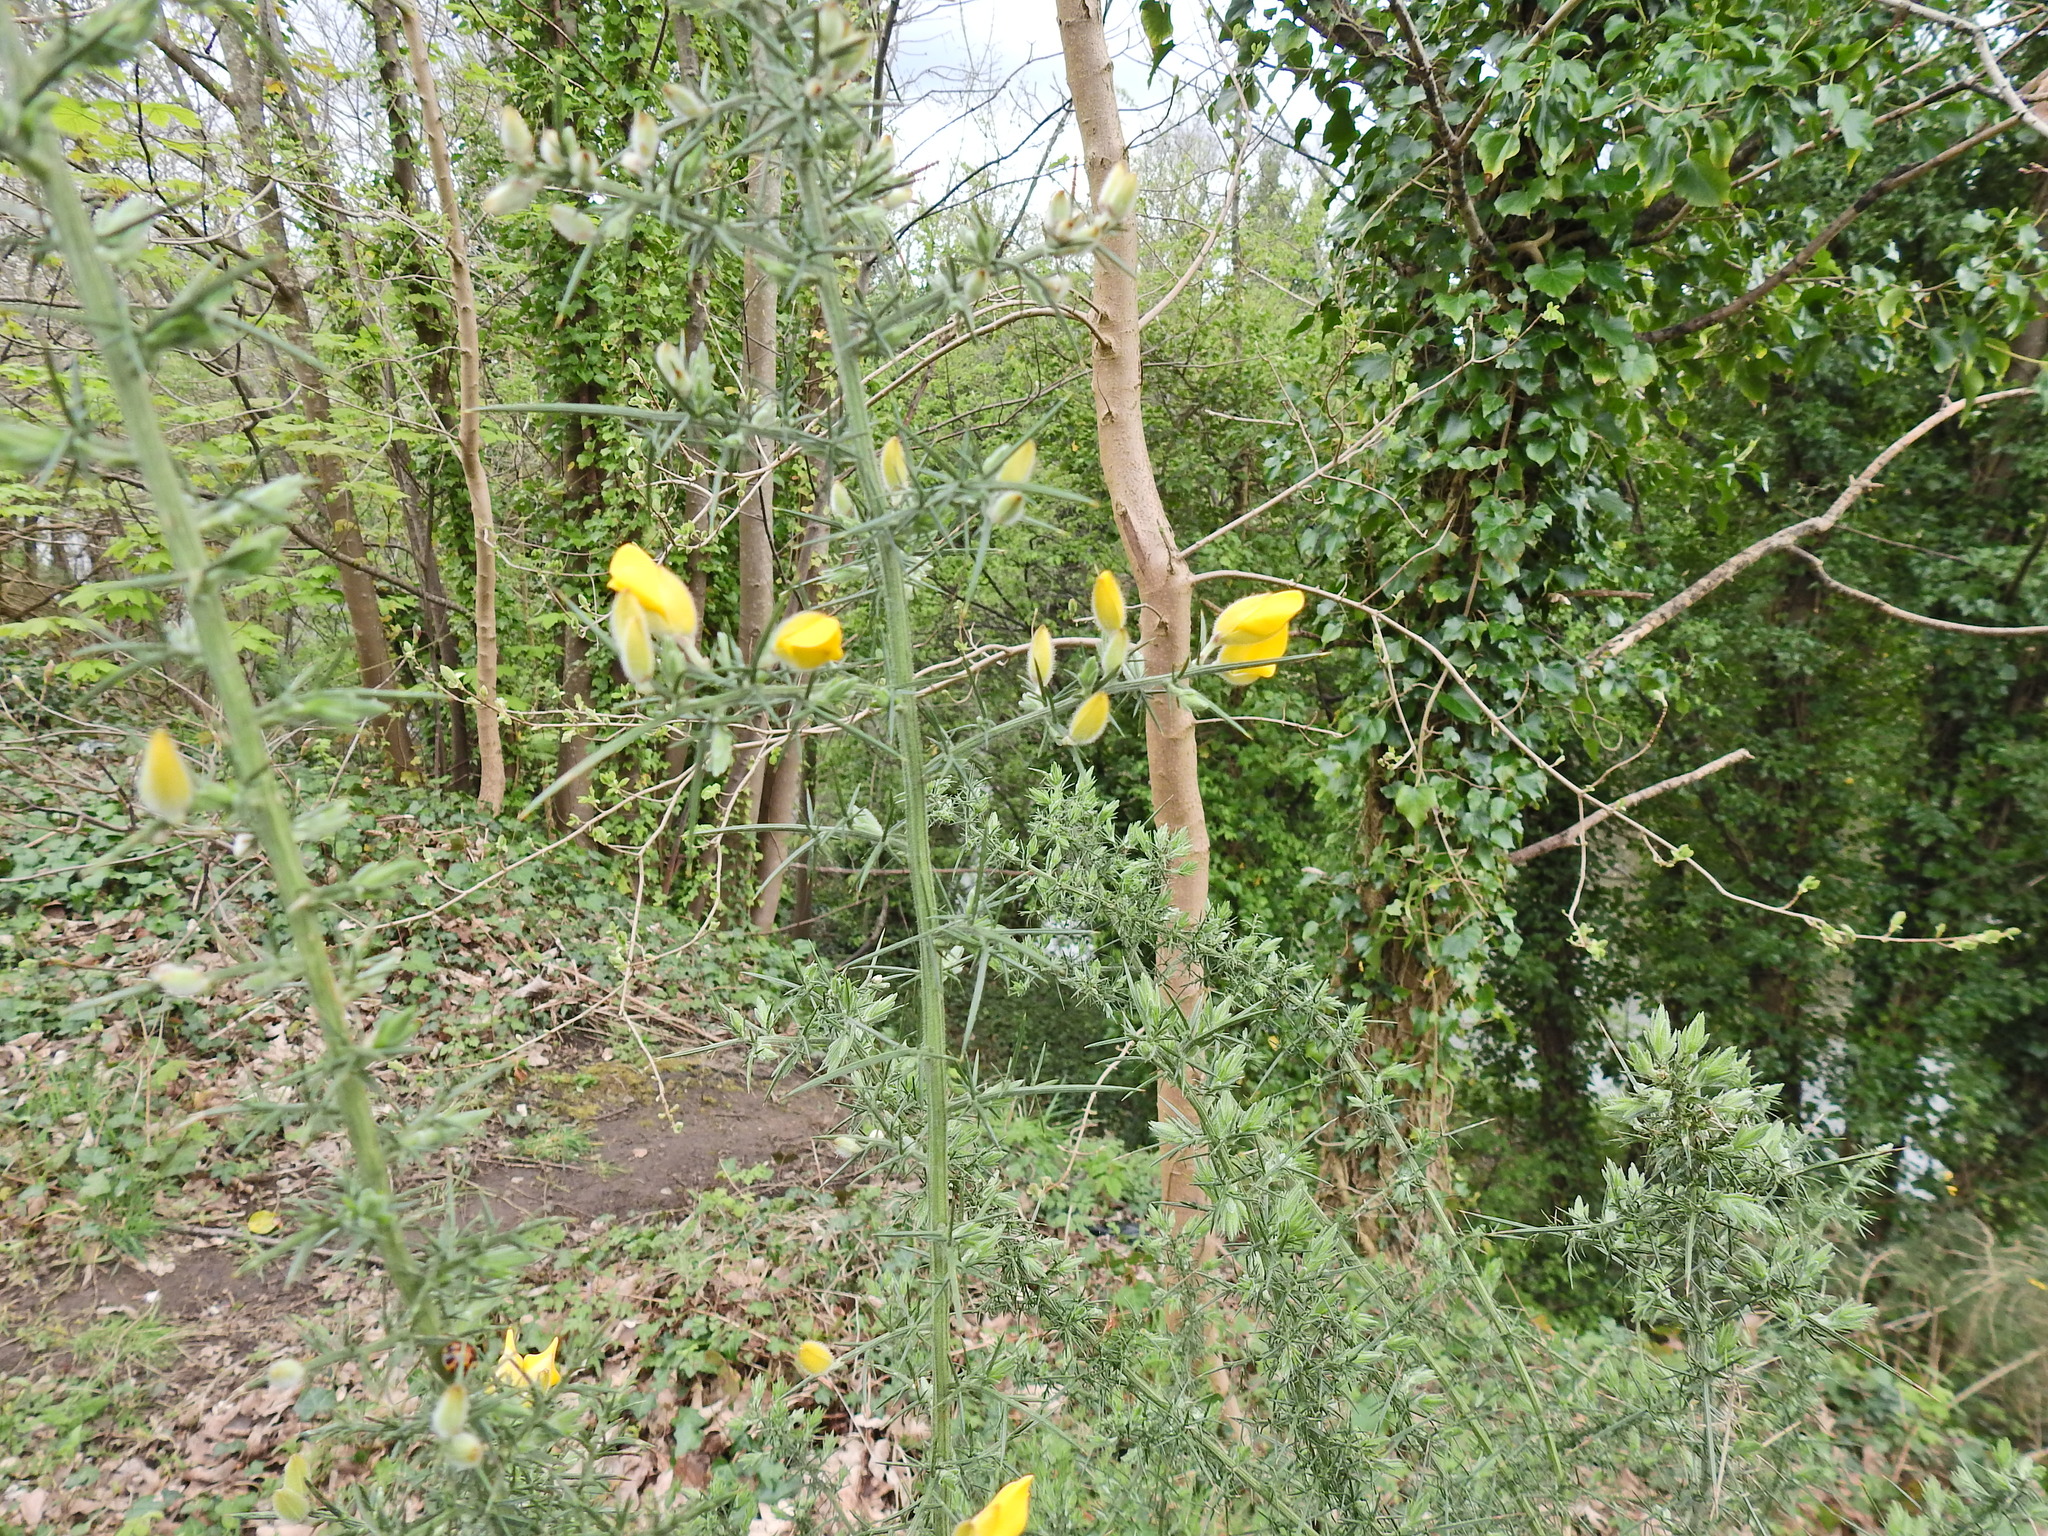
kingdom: Plantae
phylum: Tracheophyta
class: Magnoliopsida
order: Fabales
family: Fabaceae
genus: Ulex
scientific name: Ulex europaeus
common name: Common gorse
